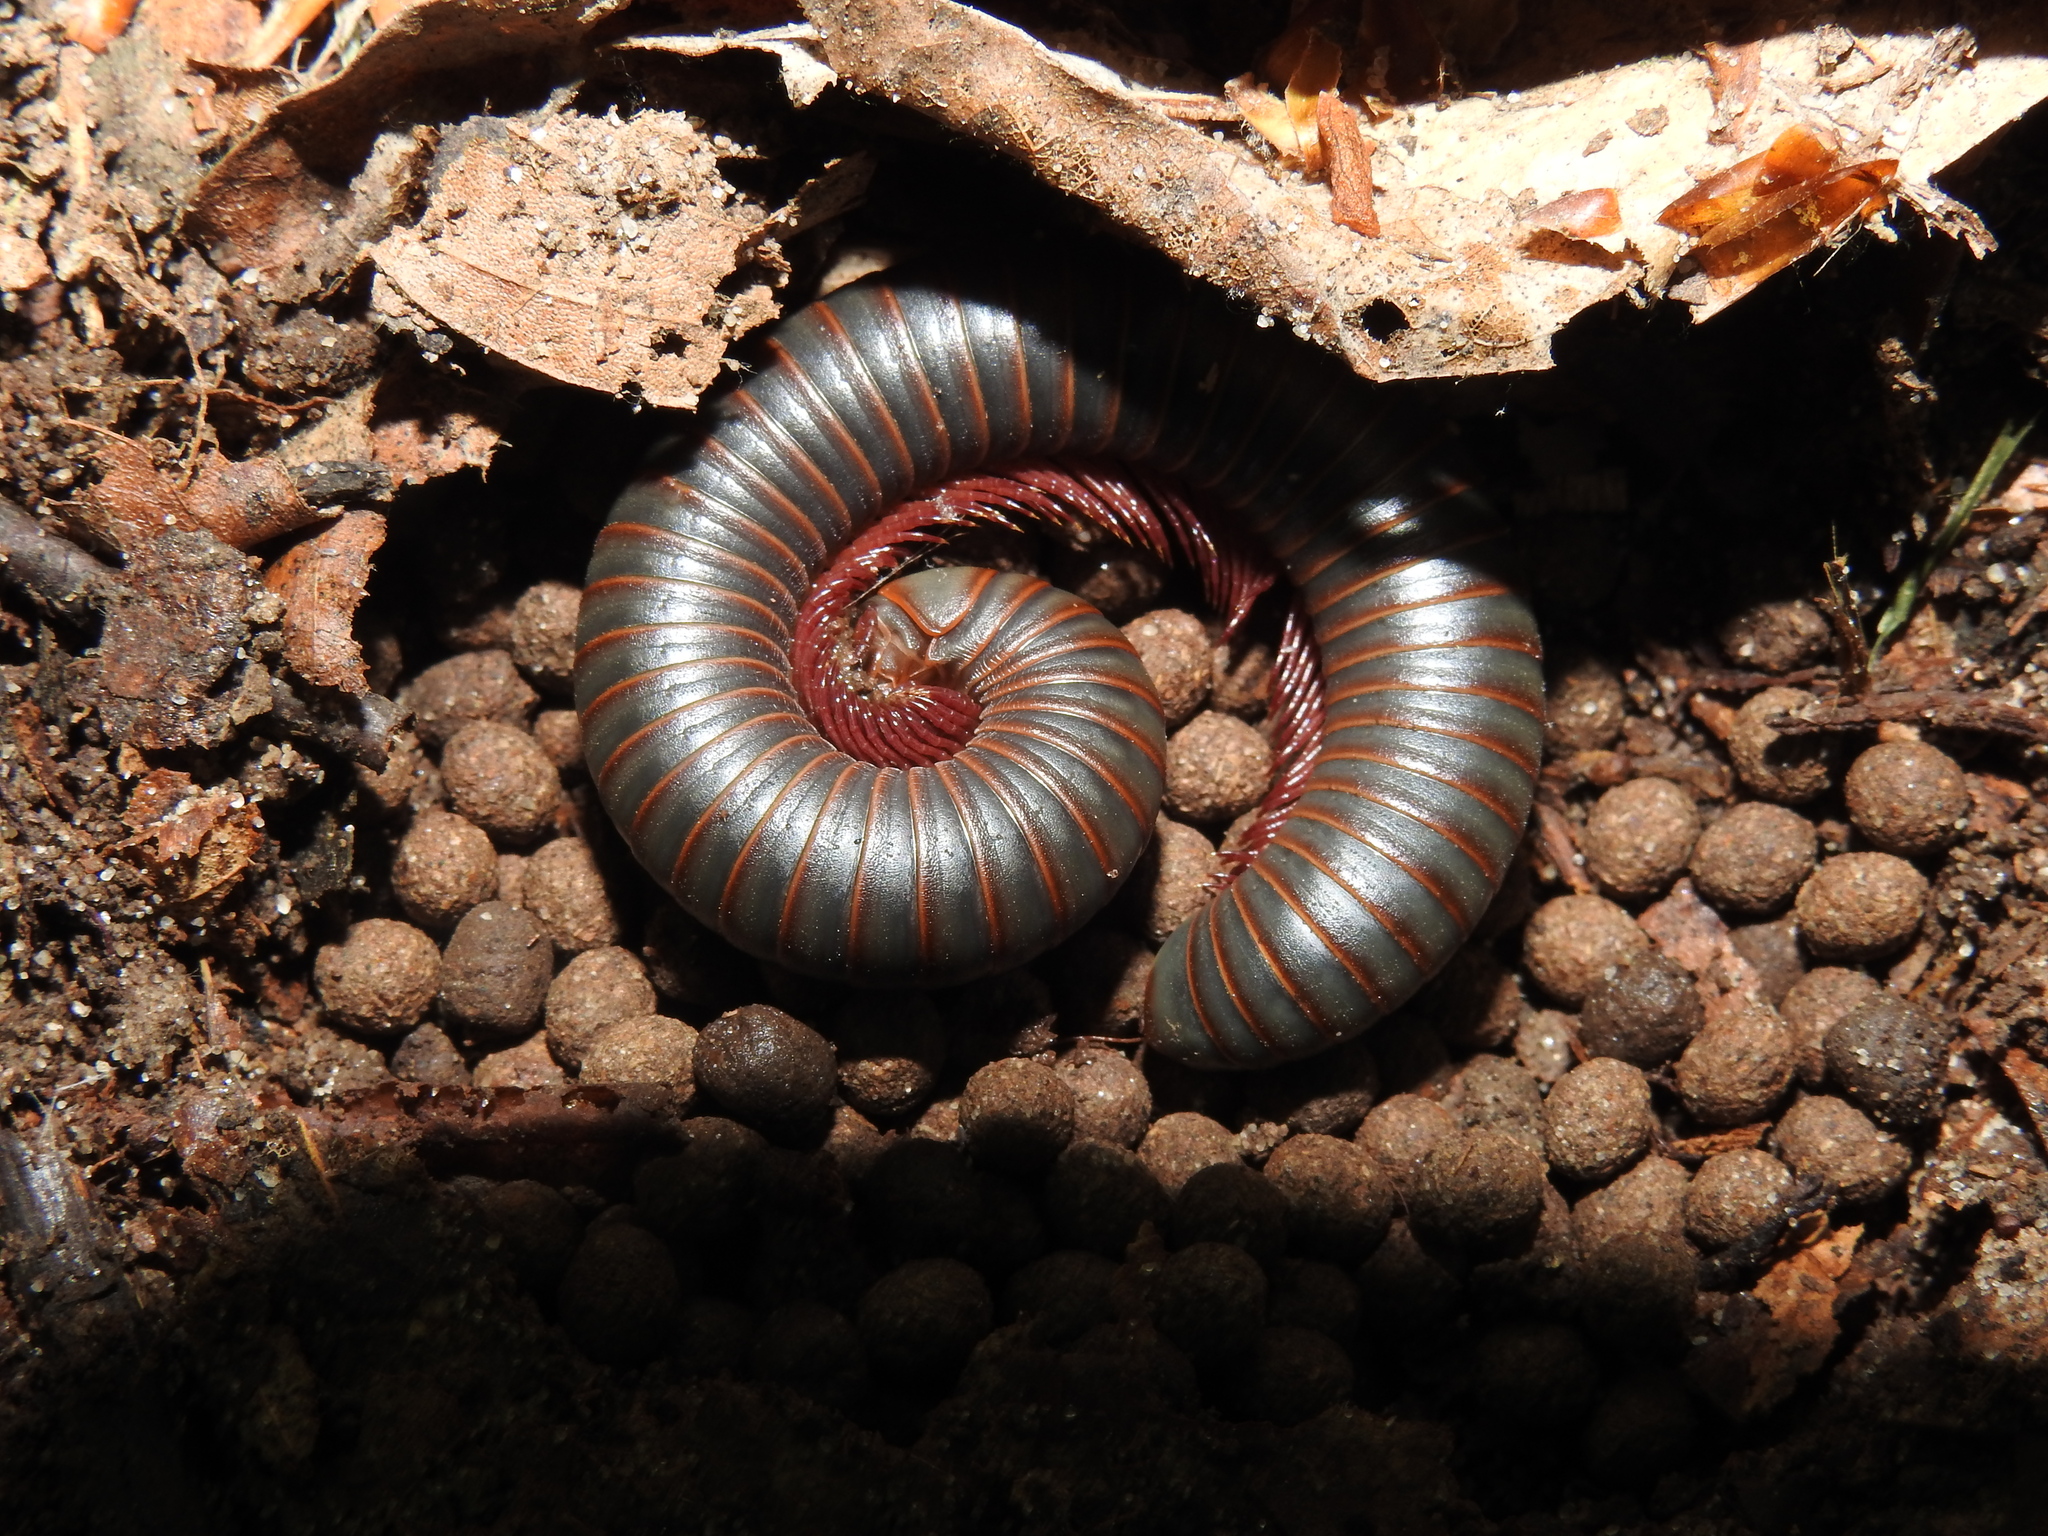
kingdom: Animalia
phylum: Arthropoda
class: Diplopoda
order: Spirobolida
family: Spirobolidae
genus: Narceus
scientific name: Narceus
